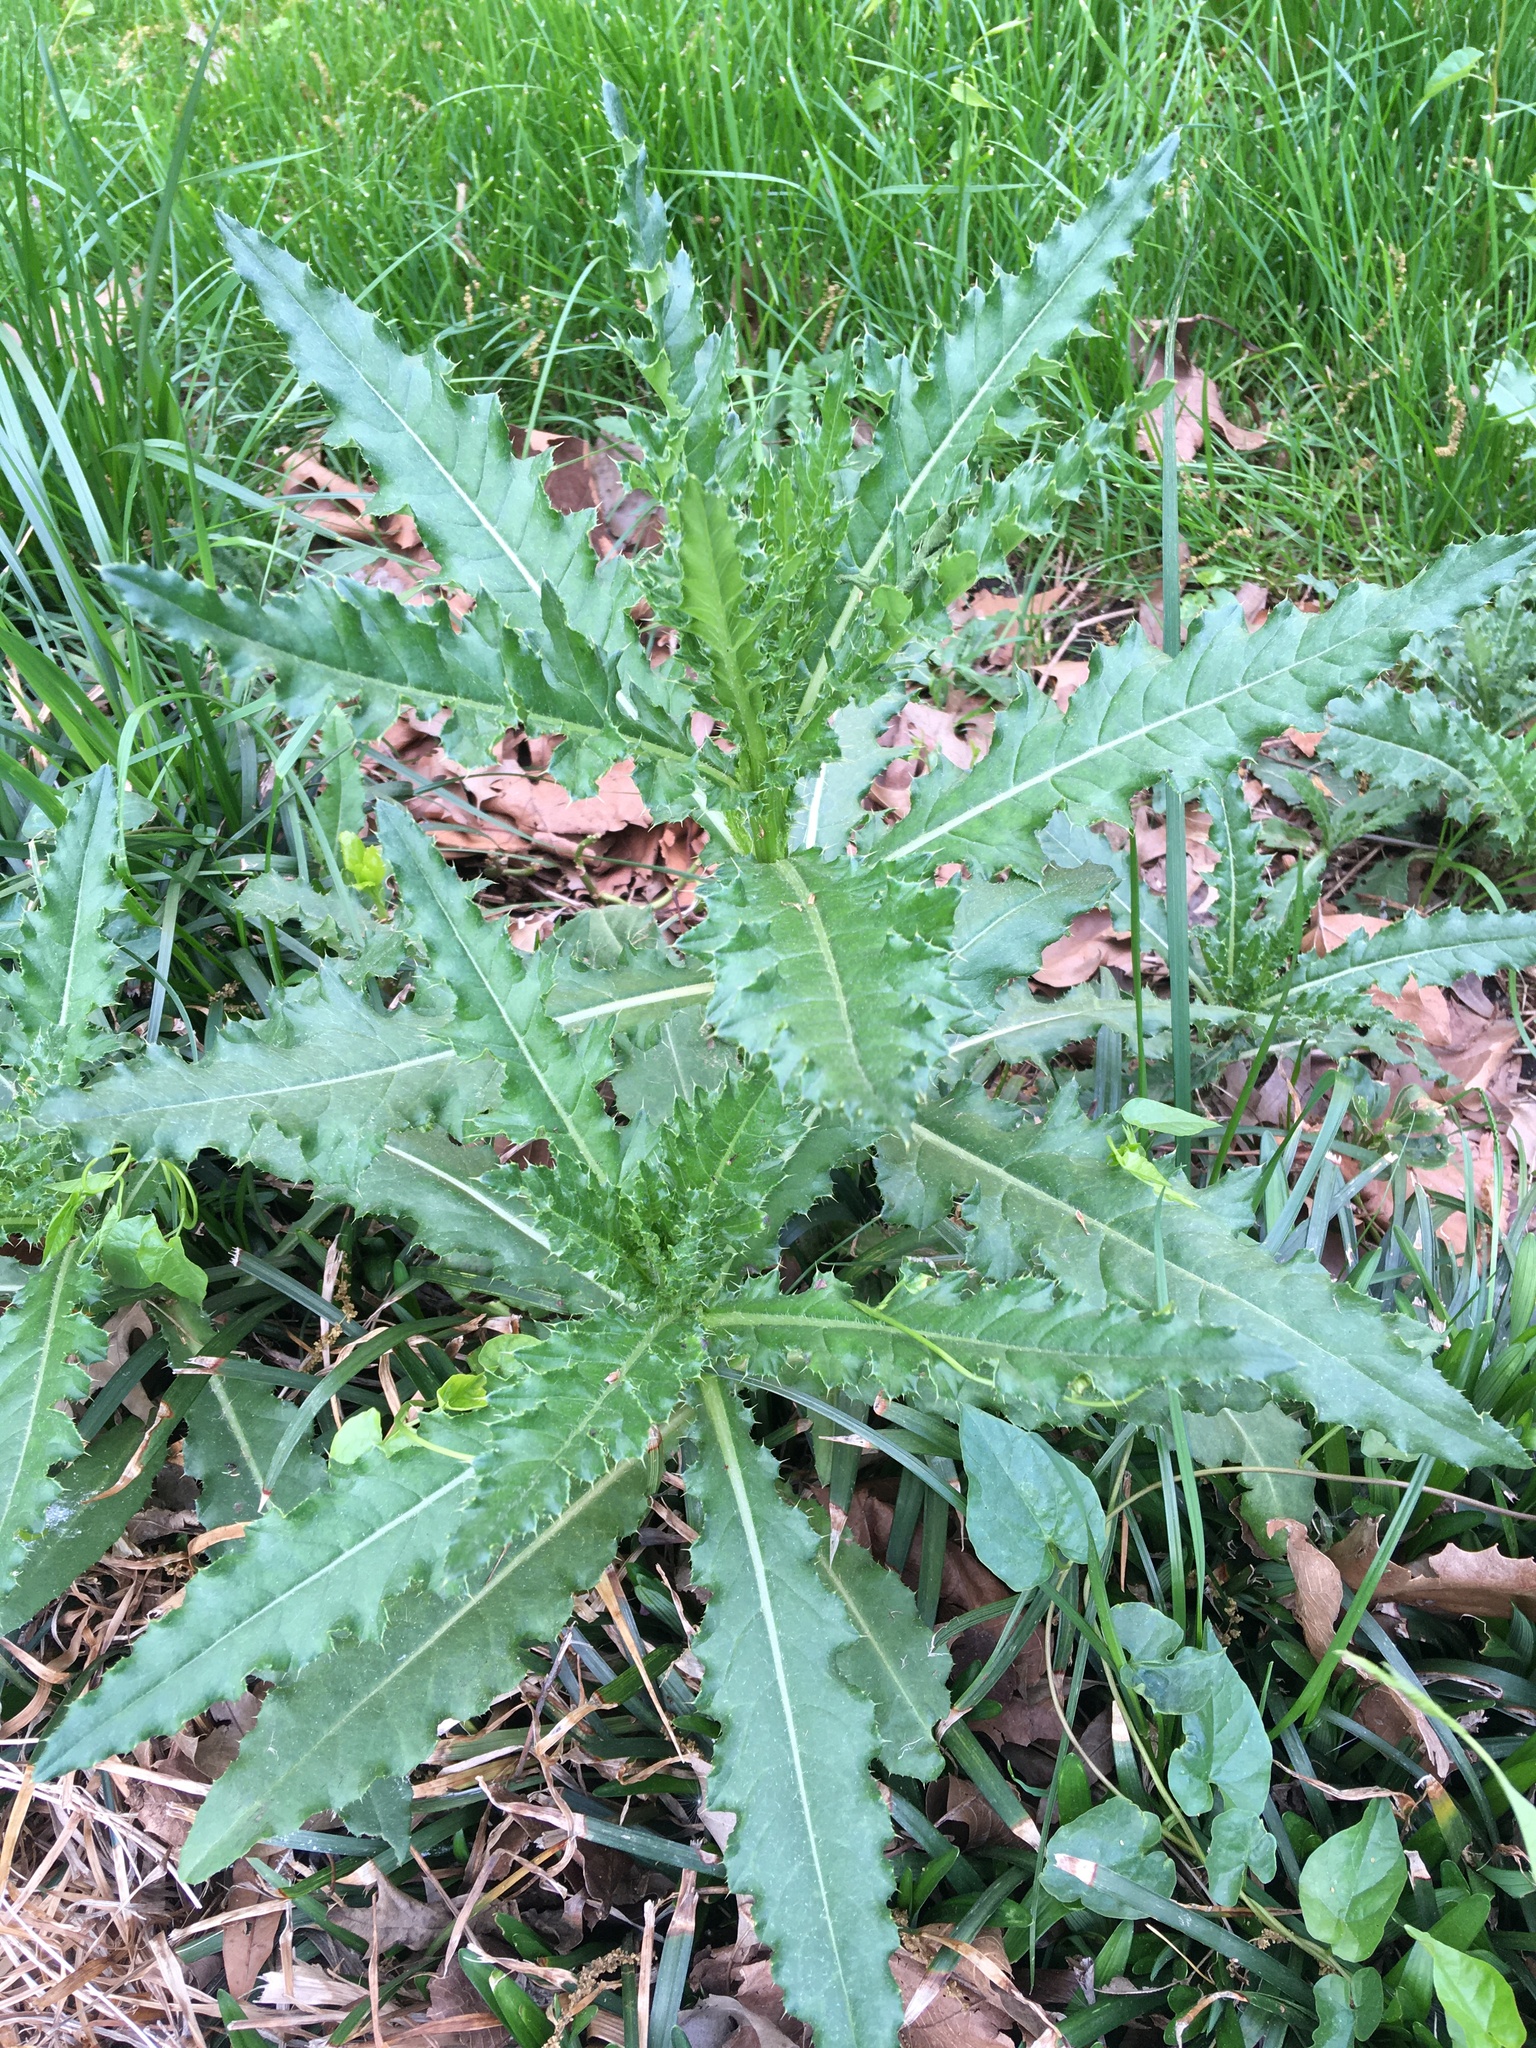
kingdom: Plantae
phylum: Tracheophyta
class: Magnoliopsida
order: Asterales
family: Asteraceae
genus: Cirsium
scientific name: Cirsium arvense
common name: Creeping thistle
